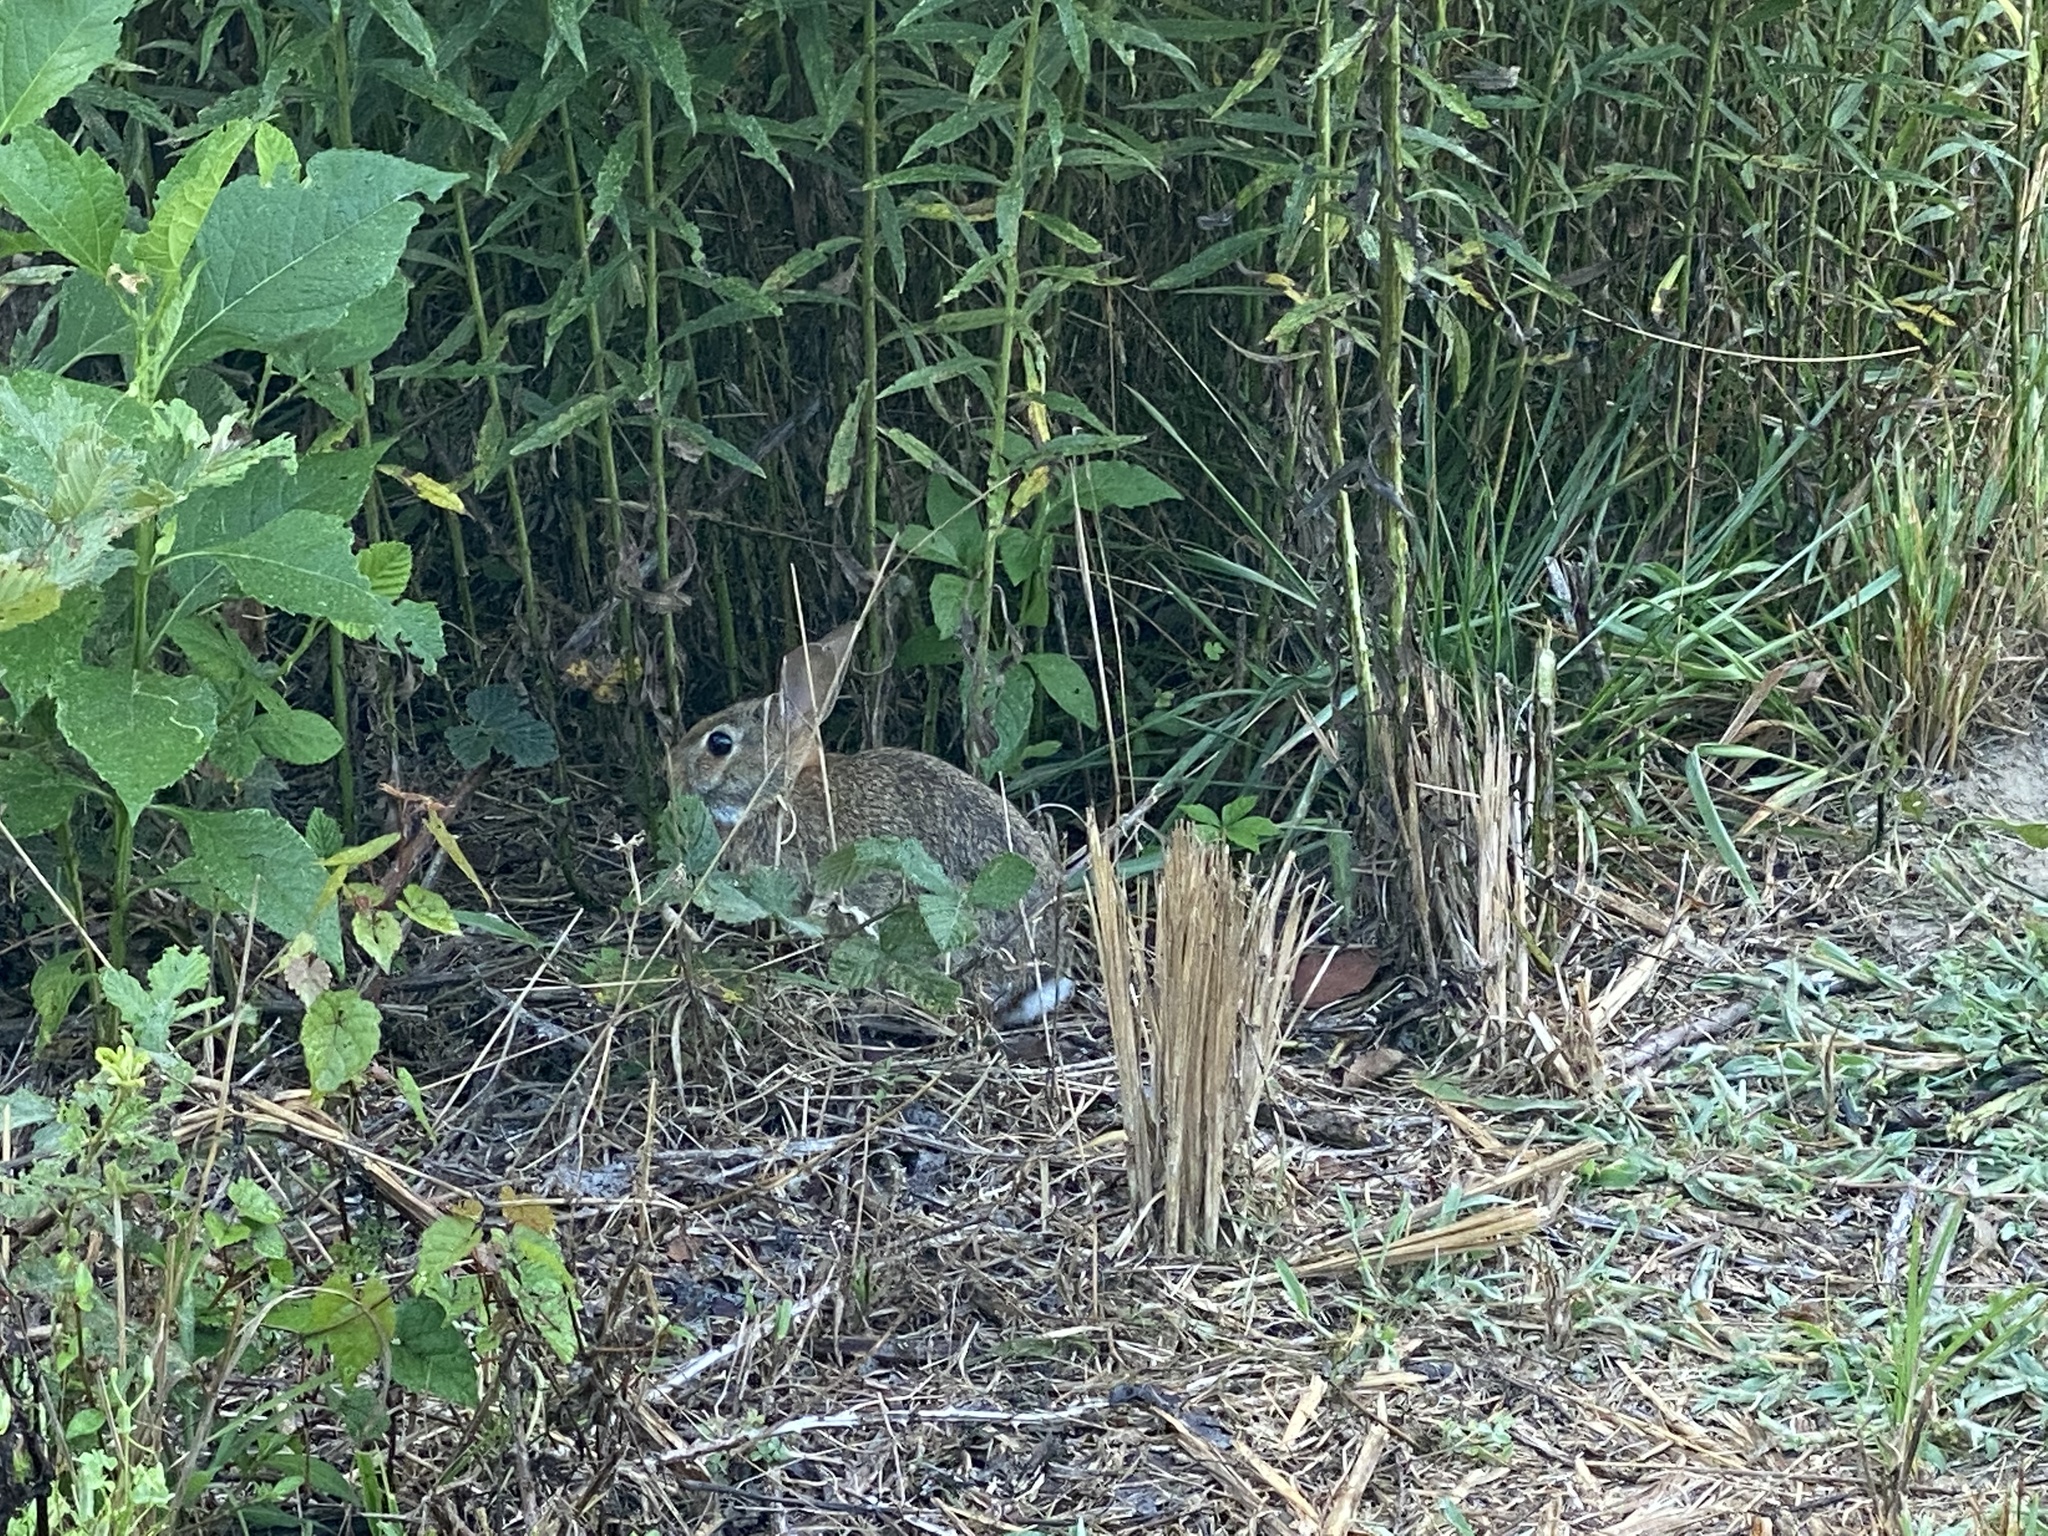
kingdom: Animalia
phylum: Chordata
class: Mammalia
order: Lagomorpha
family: Leporidae
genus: Sylvilagus
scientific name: Sylvilagus floridanus
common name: Eastern cottontail
